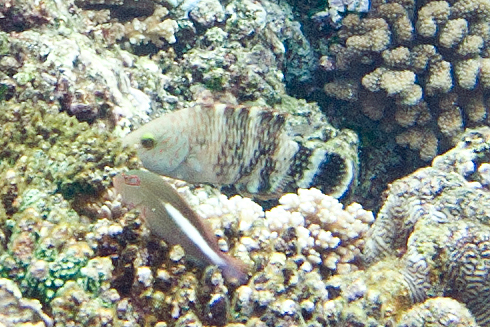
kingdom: Animalia
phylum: Chordata
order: Perciformes
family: Cirrhitidae
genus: Paracirrhites
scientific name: Paracirrhites arcatus
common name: Arc-eye hawkfish
